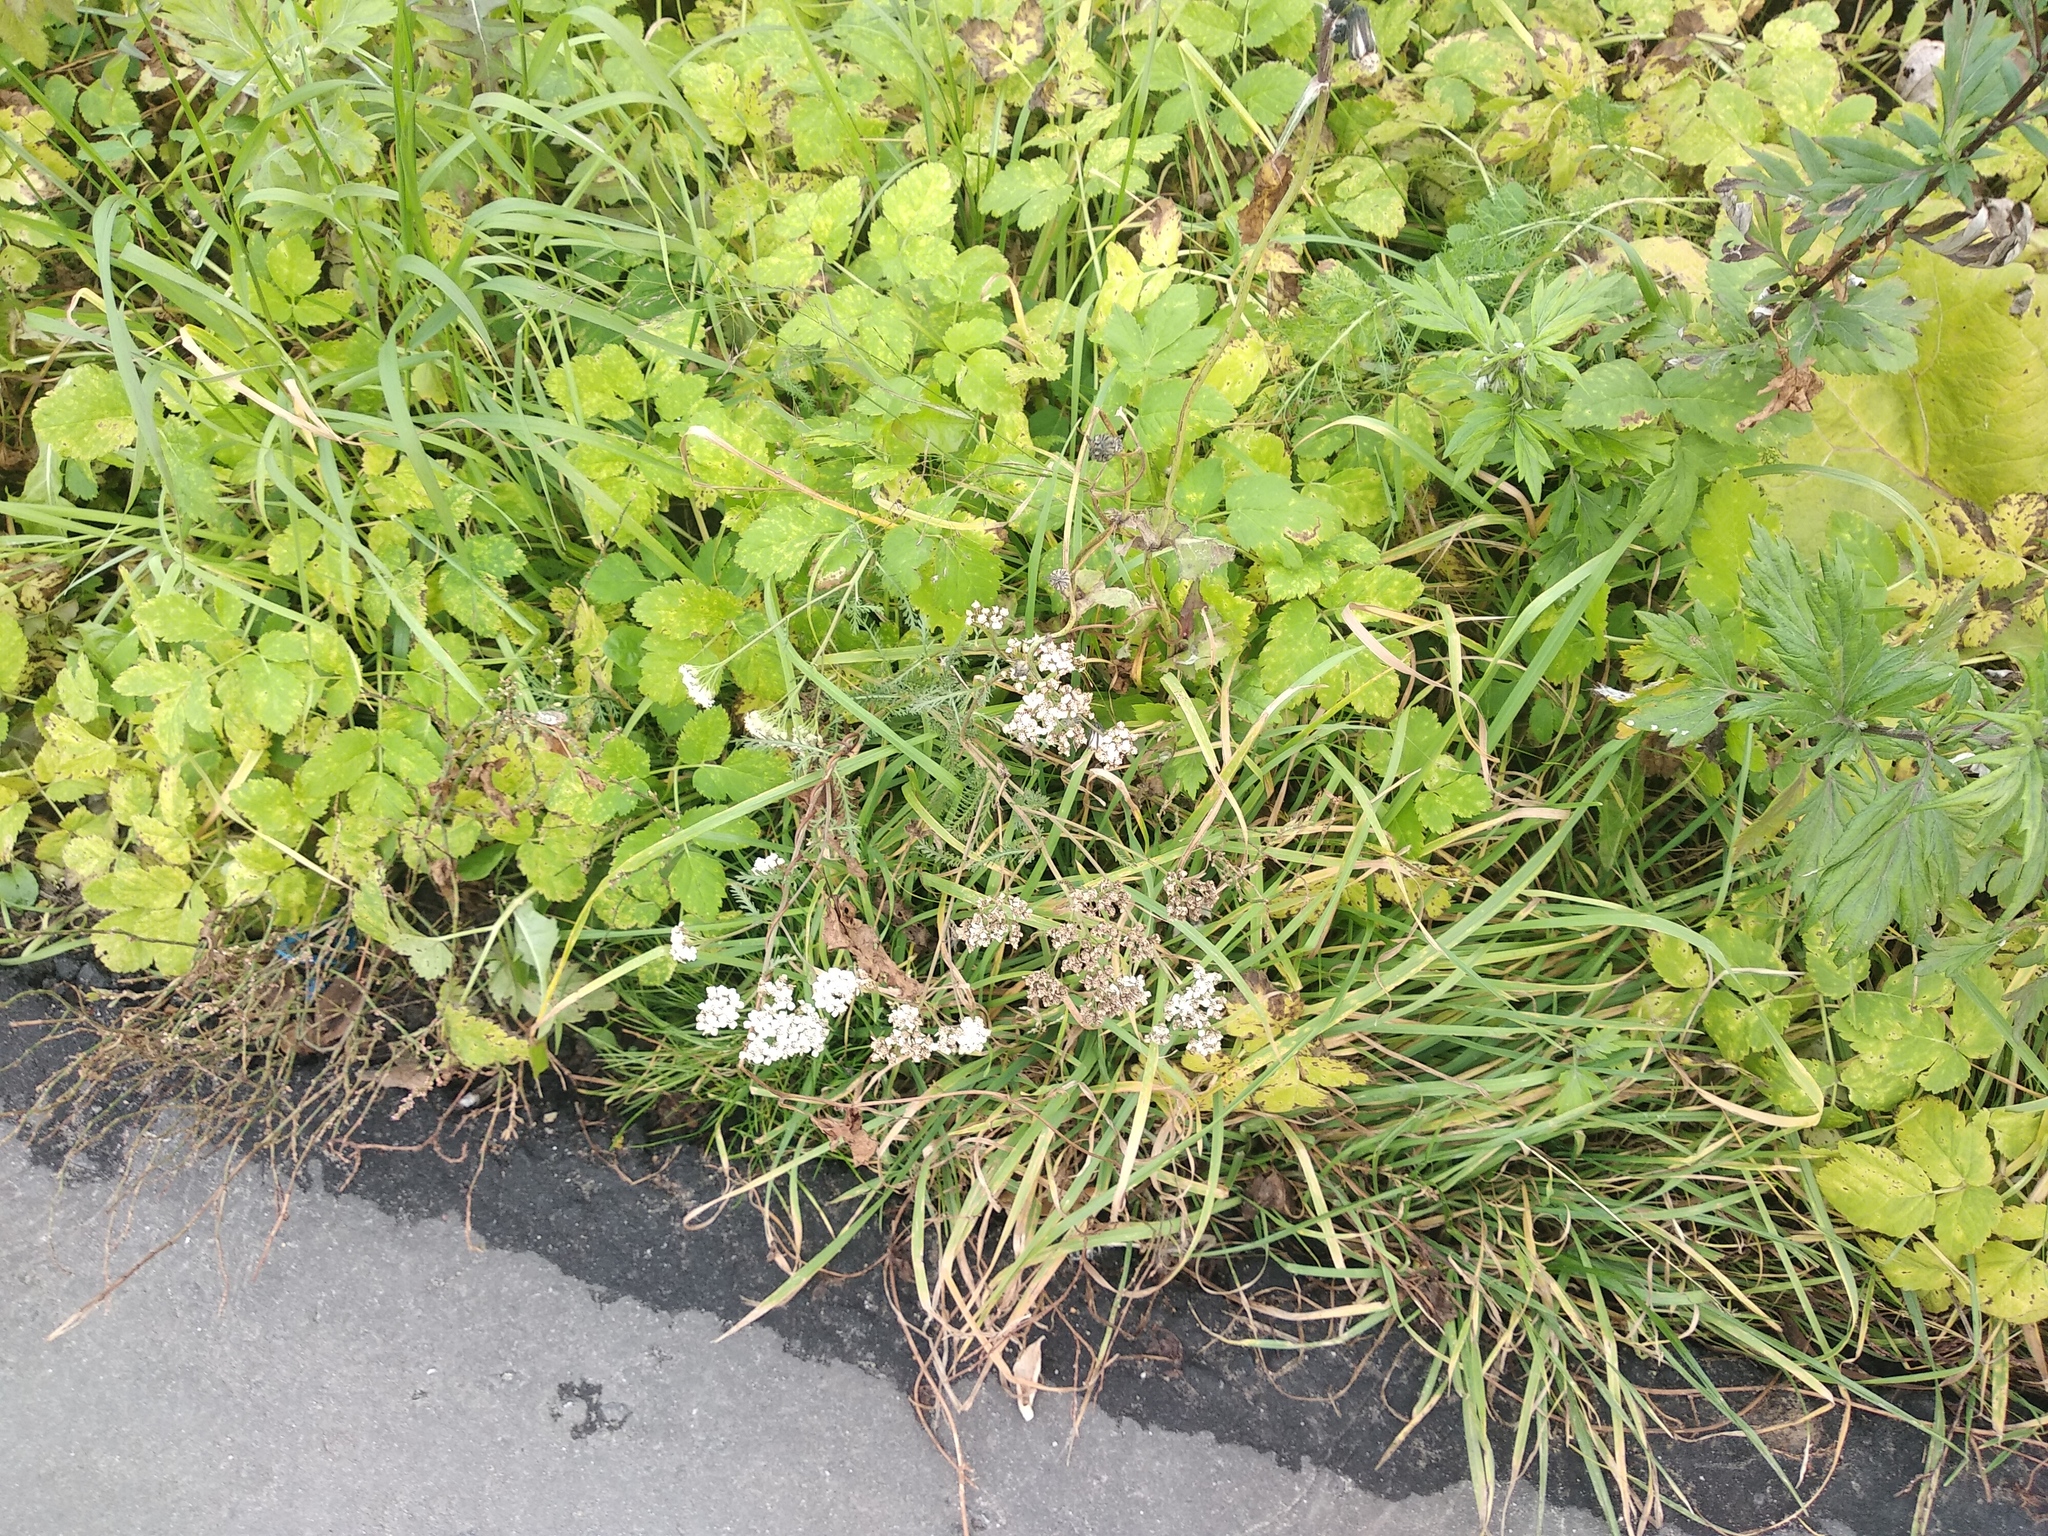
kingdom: Plantae
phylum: Tracheophyta
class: Magnoliopsida
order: Asterales
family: Asteraceae
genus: Achillea
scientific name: Achillea millefolium
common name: Yarrow
